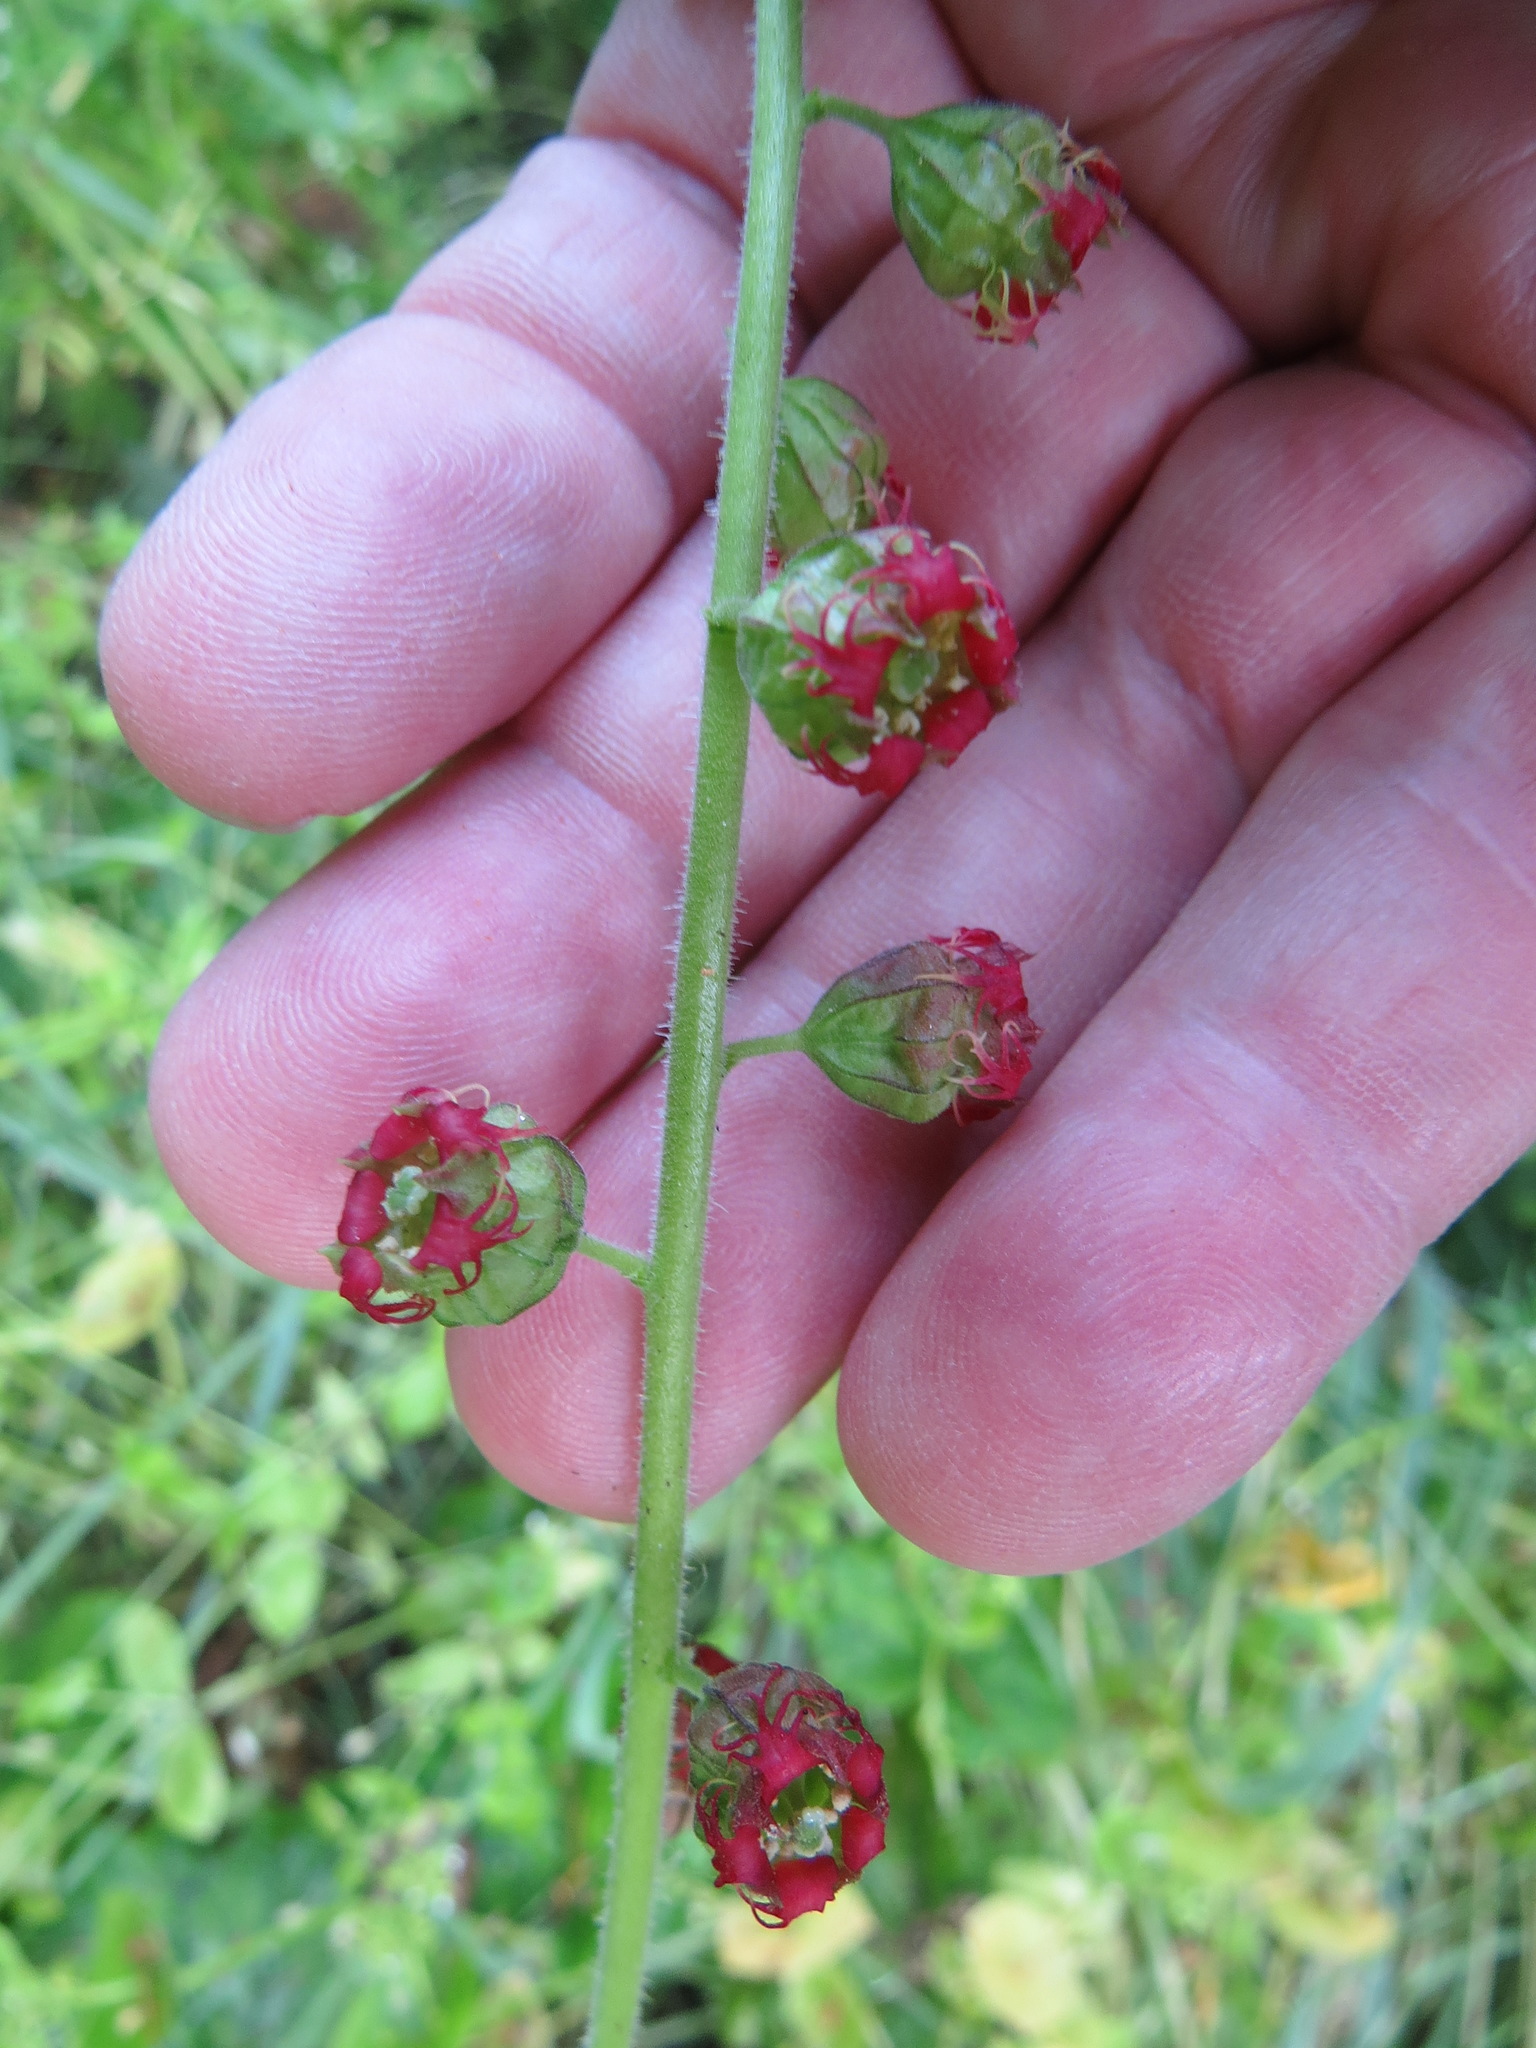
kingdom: Plantae
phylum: Tracheophyta
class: Magnoliopsida
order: Saxifragales
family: Saxifragaceae
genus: Tellima
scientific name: Tellima grandiflora
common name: Fringecups
